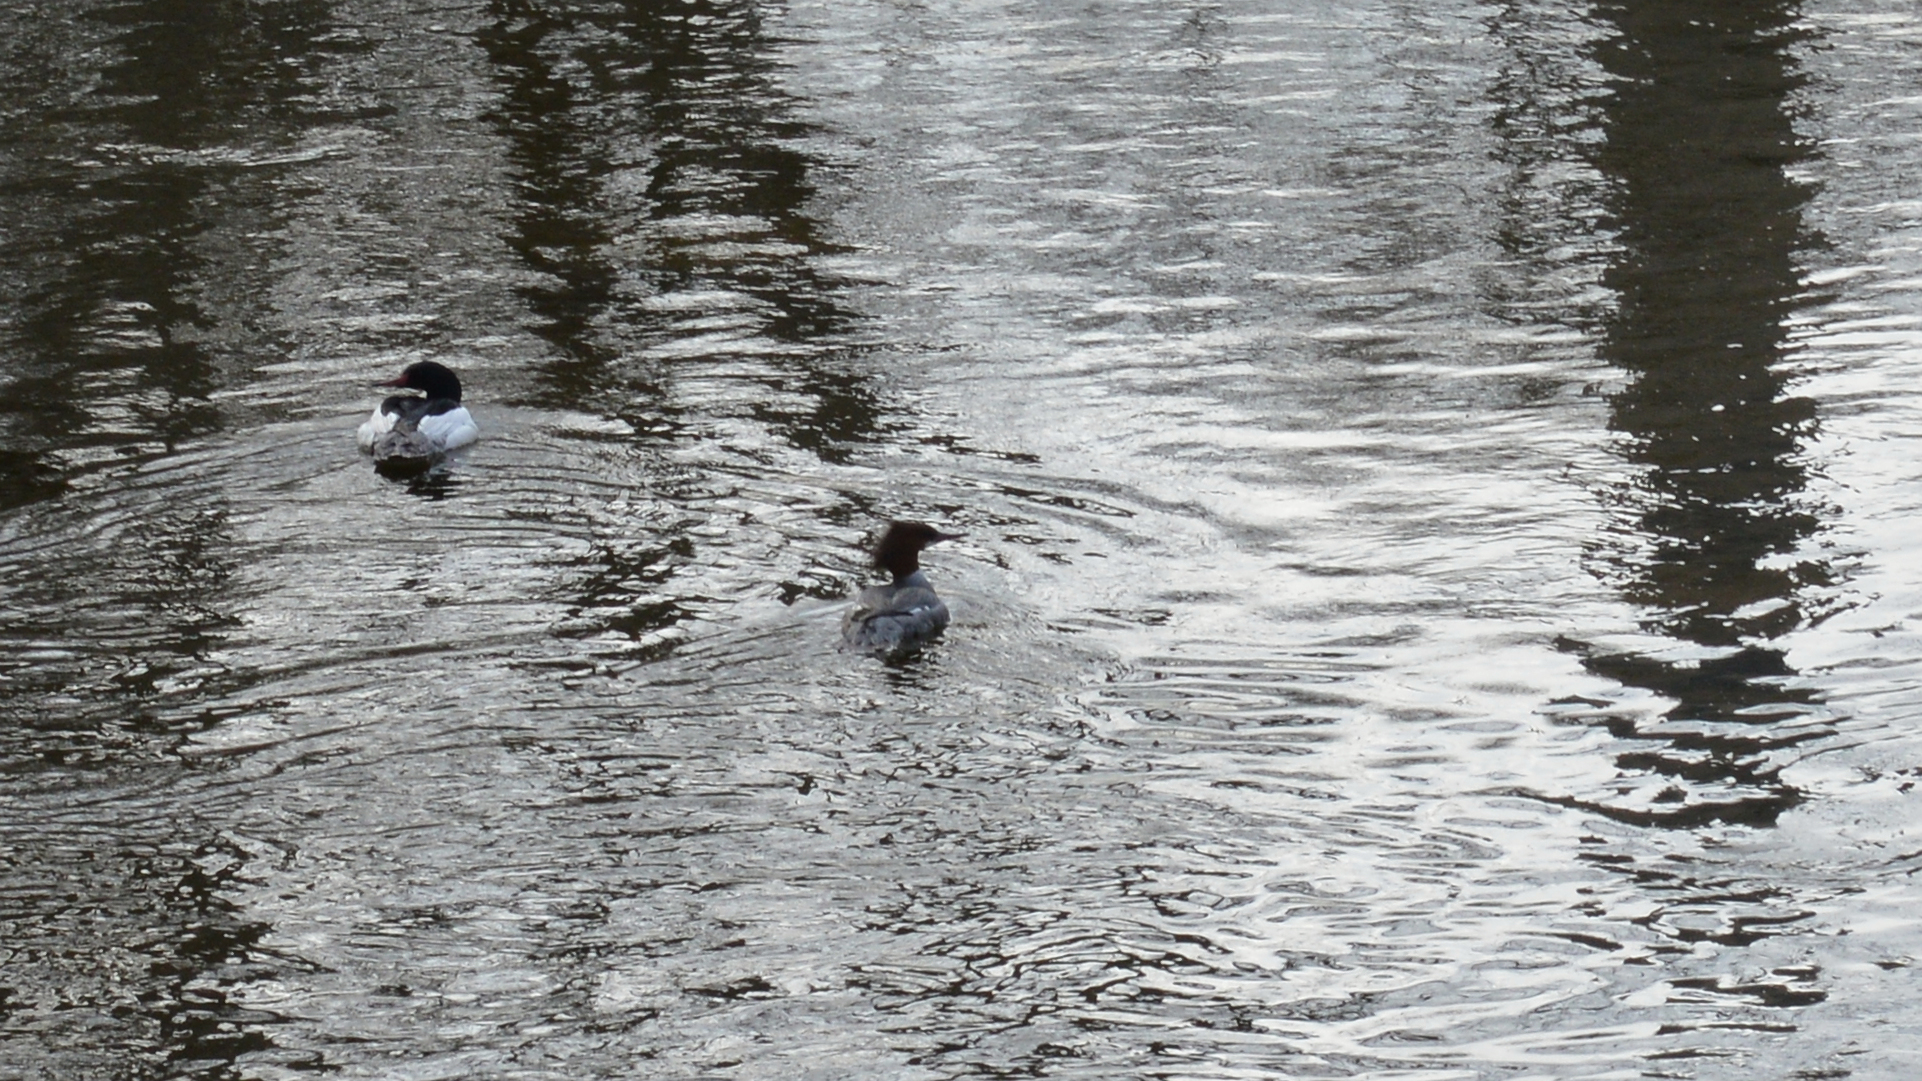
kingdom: Animalia
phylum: Chordata
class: Aves
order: Anseriformes
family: Anatidae
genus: Mergus
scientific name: Mergus merganser
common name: Common merganser
